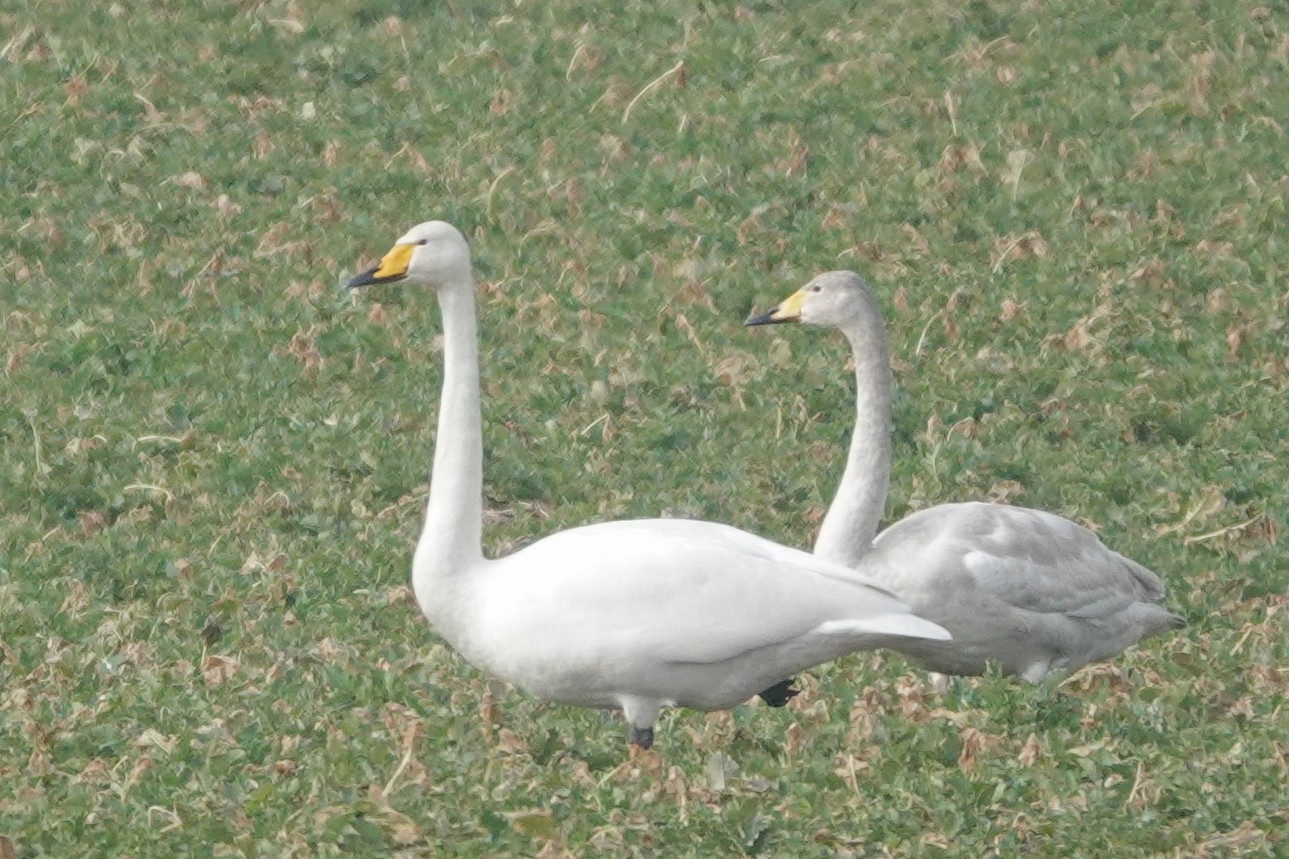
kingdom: Animalia
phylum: Chordata
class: Aves
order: Anseriformes
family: Anatidae
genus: Cygnus
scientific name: Cygnus cygnus
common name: Whooper swan
